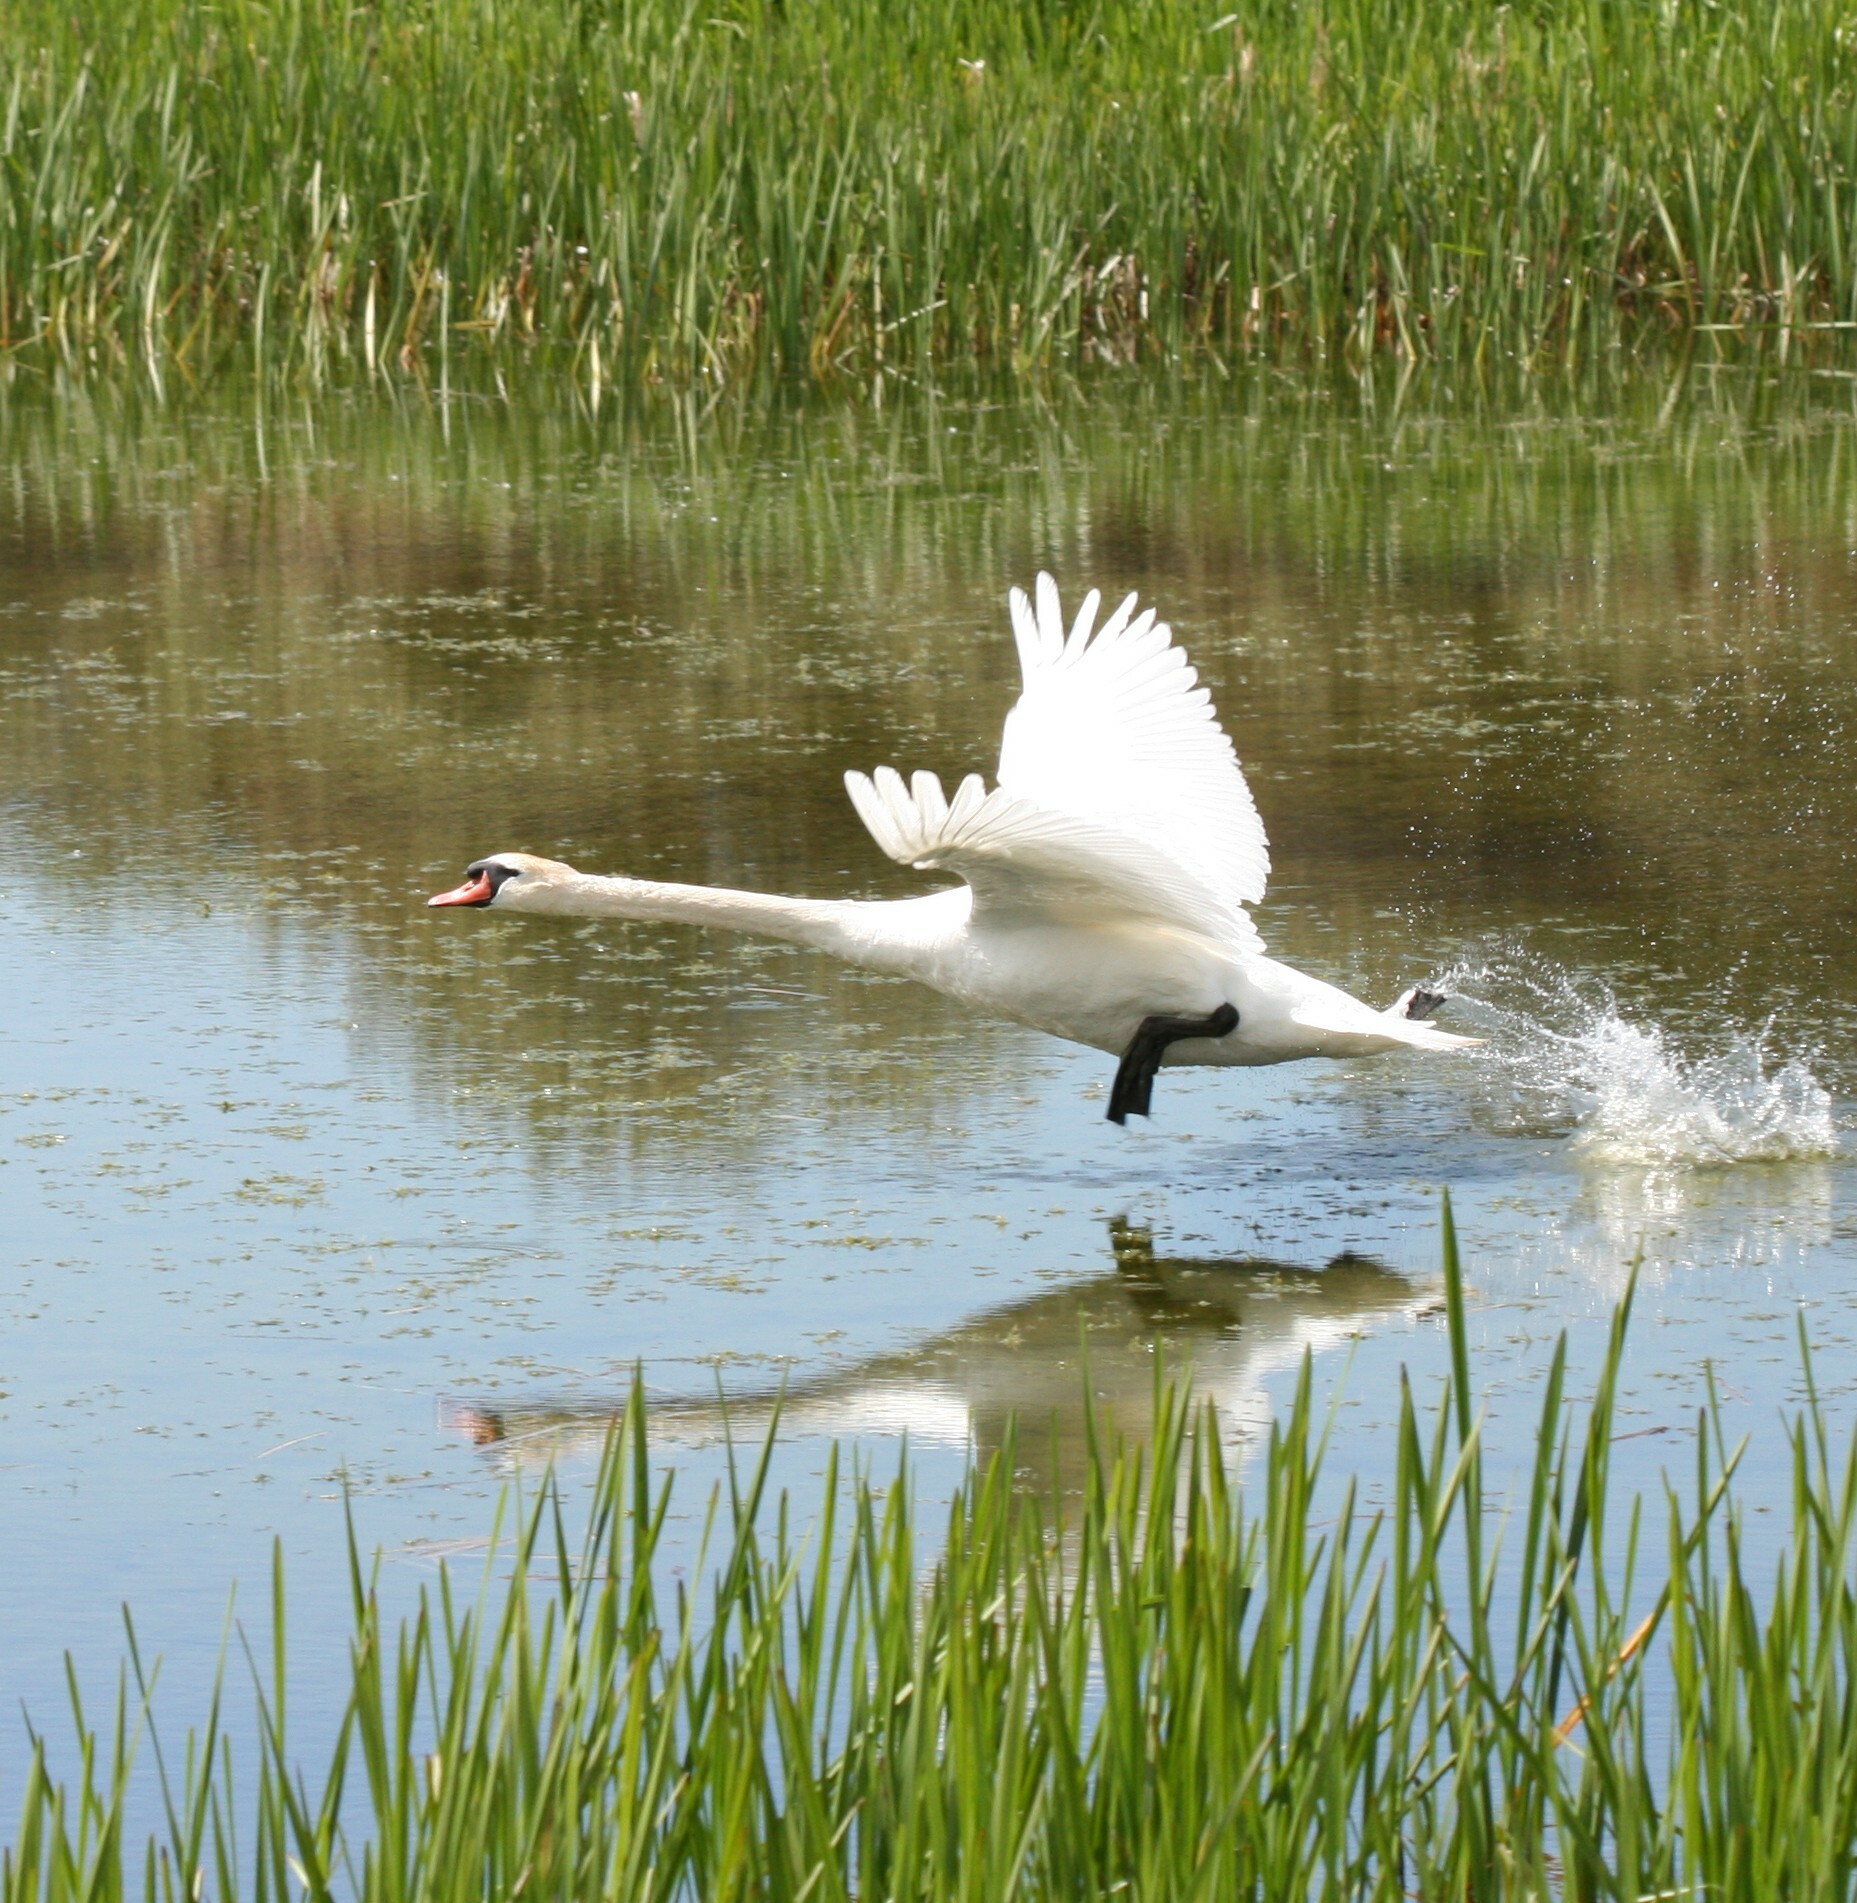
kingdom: Animalia
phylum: Chordata
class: Aves
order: Anseriformes
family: Anatidae
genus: Cygnus
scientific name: Cygnus olor
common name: Mute swan
